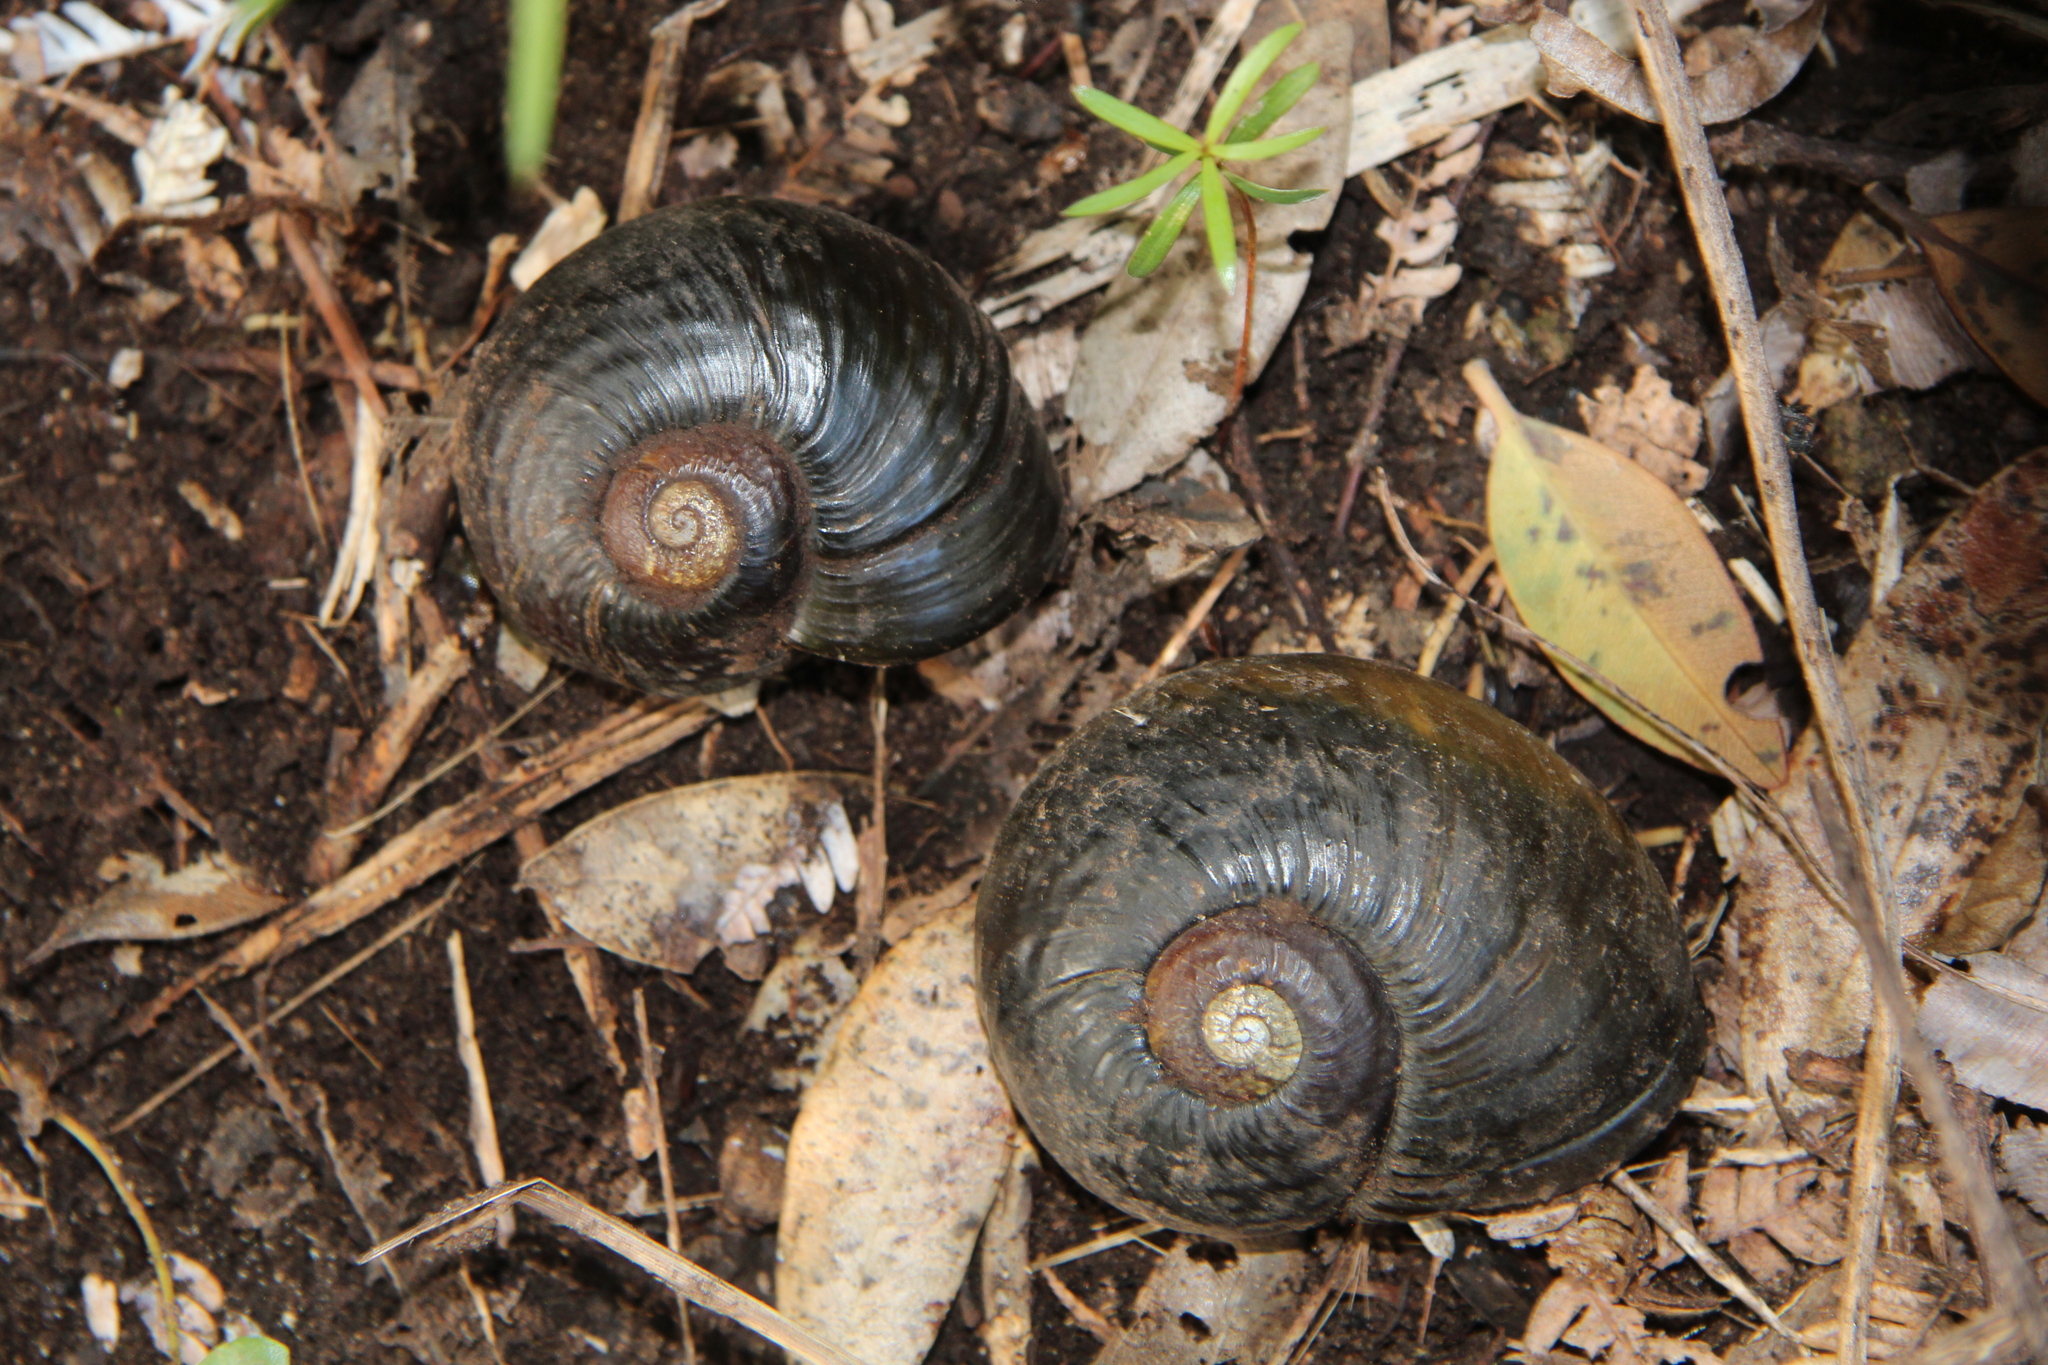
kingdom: Animalia
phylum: Mollusca
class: Gastropoda
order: Stylommatophora
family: Rhytididae
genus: Paryphanta
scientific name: Paryphanta busbyi
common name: Kauri snail
